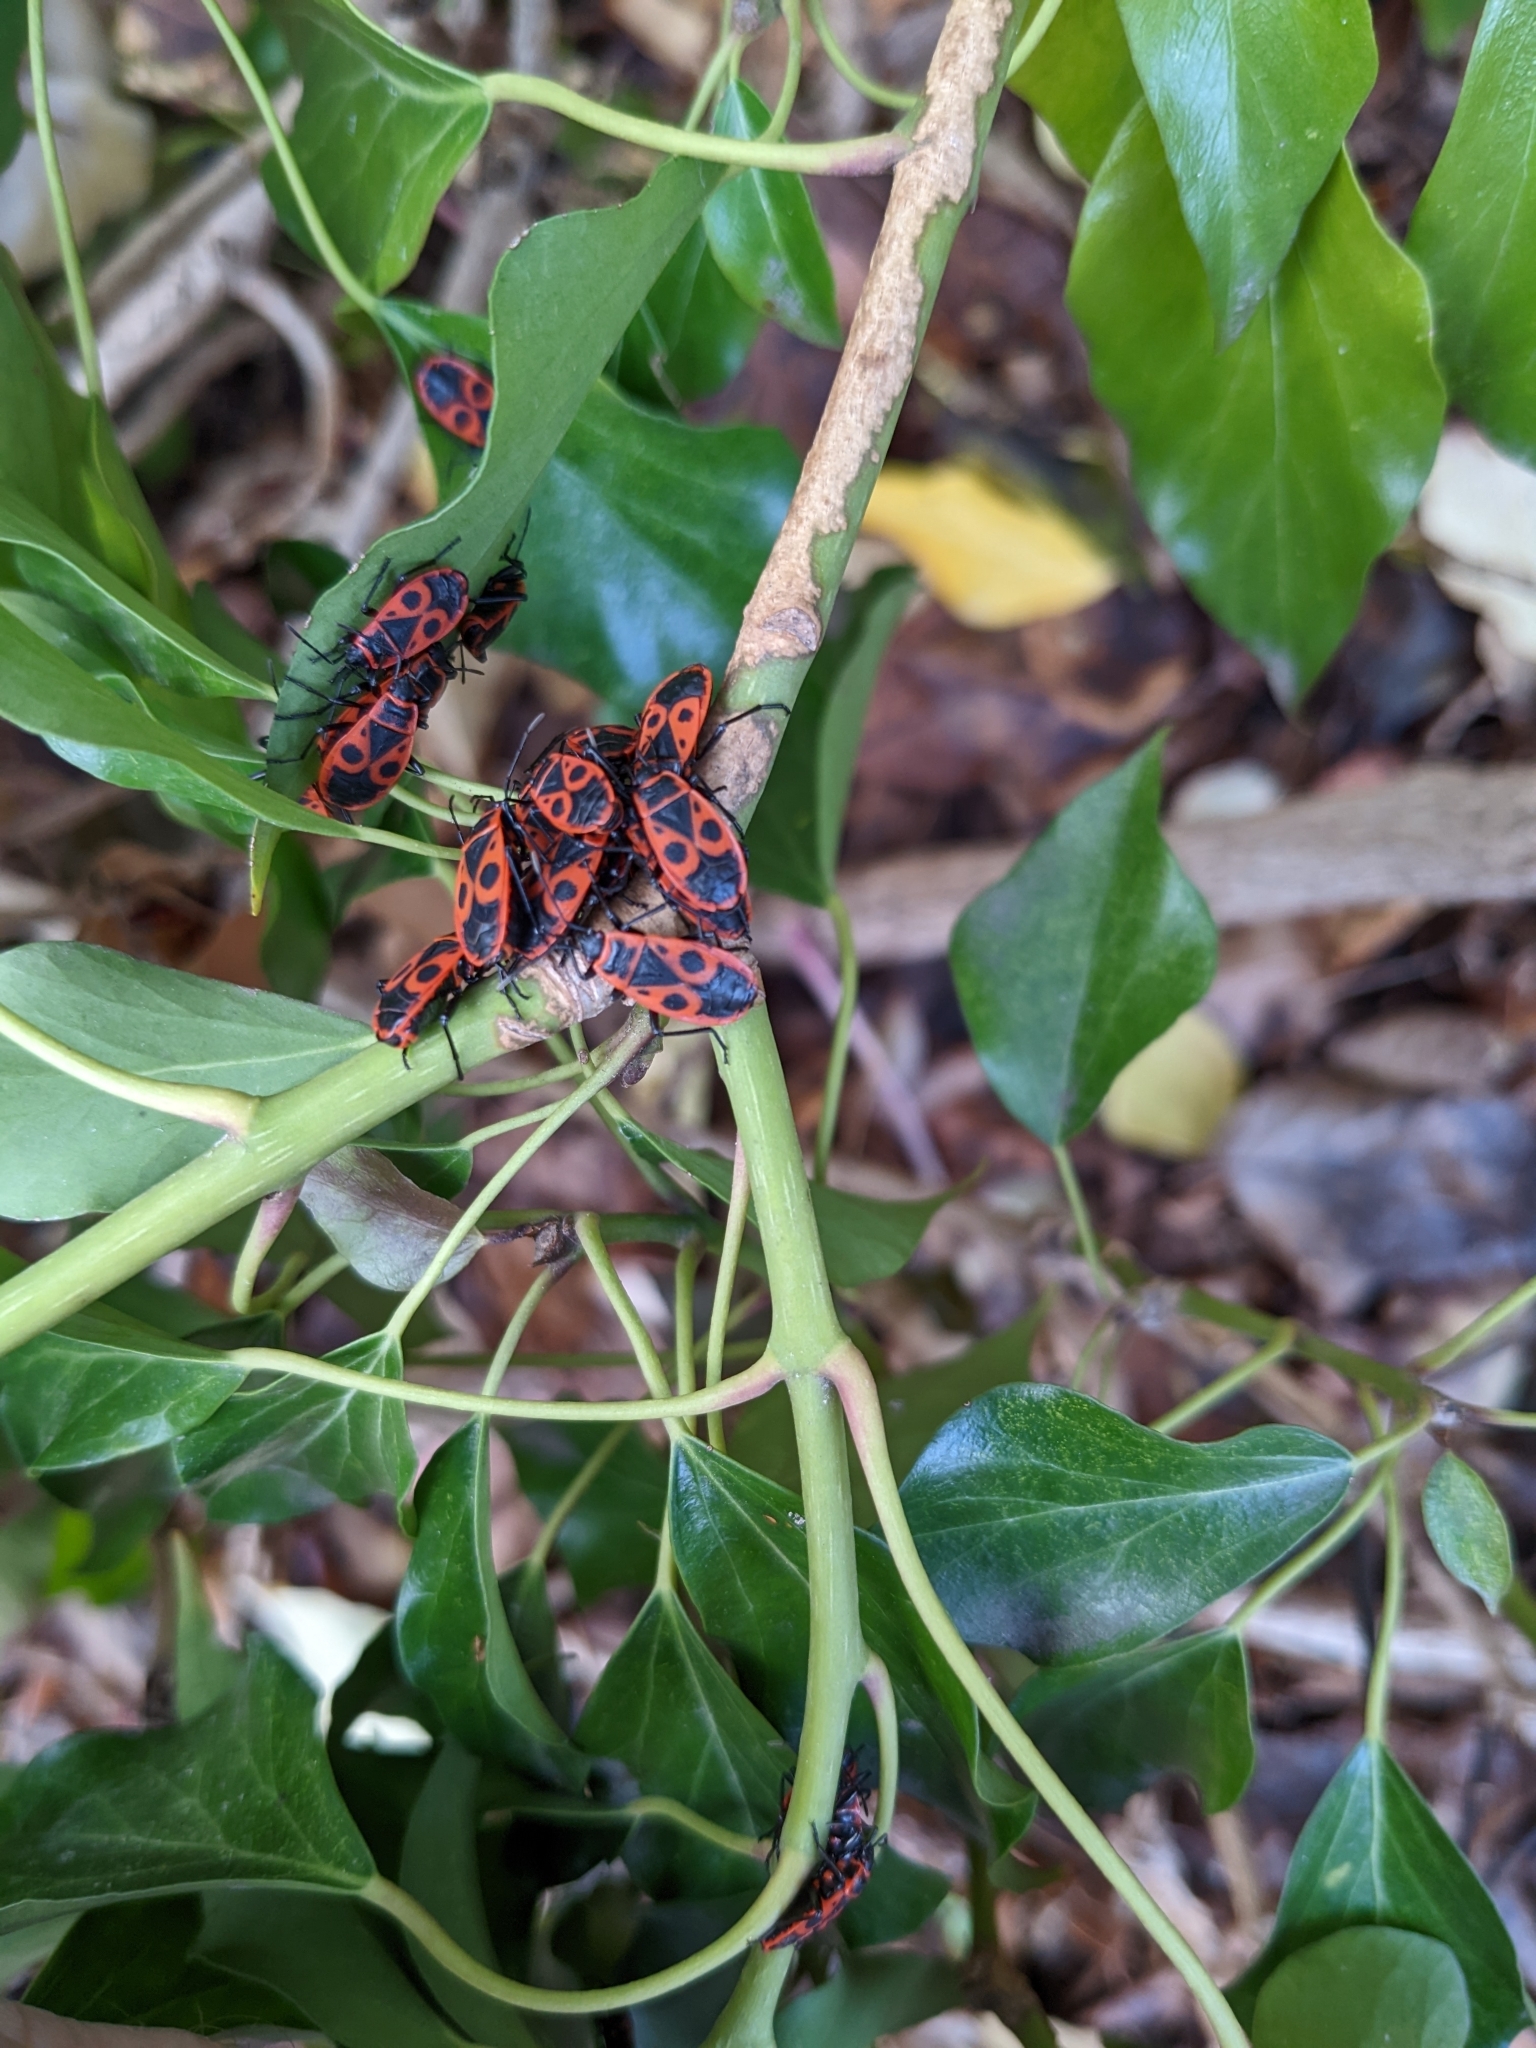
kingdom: Animalia
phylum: Arthropoda
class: Insecta
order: Hemiptera
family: Pyrrhocoridae
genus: Pyrrhocoris
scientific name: Pyrrhocoris apterus
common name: Firebug
